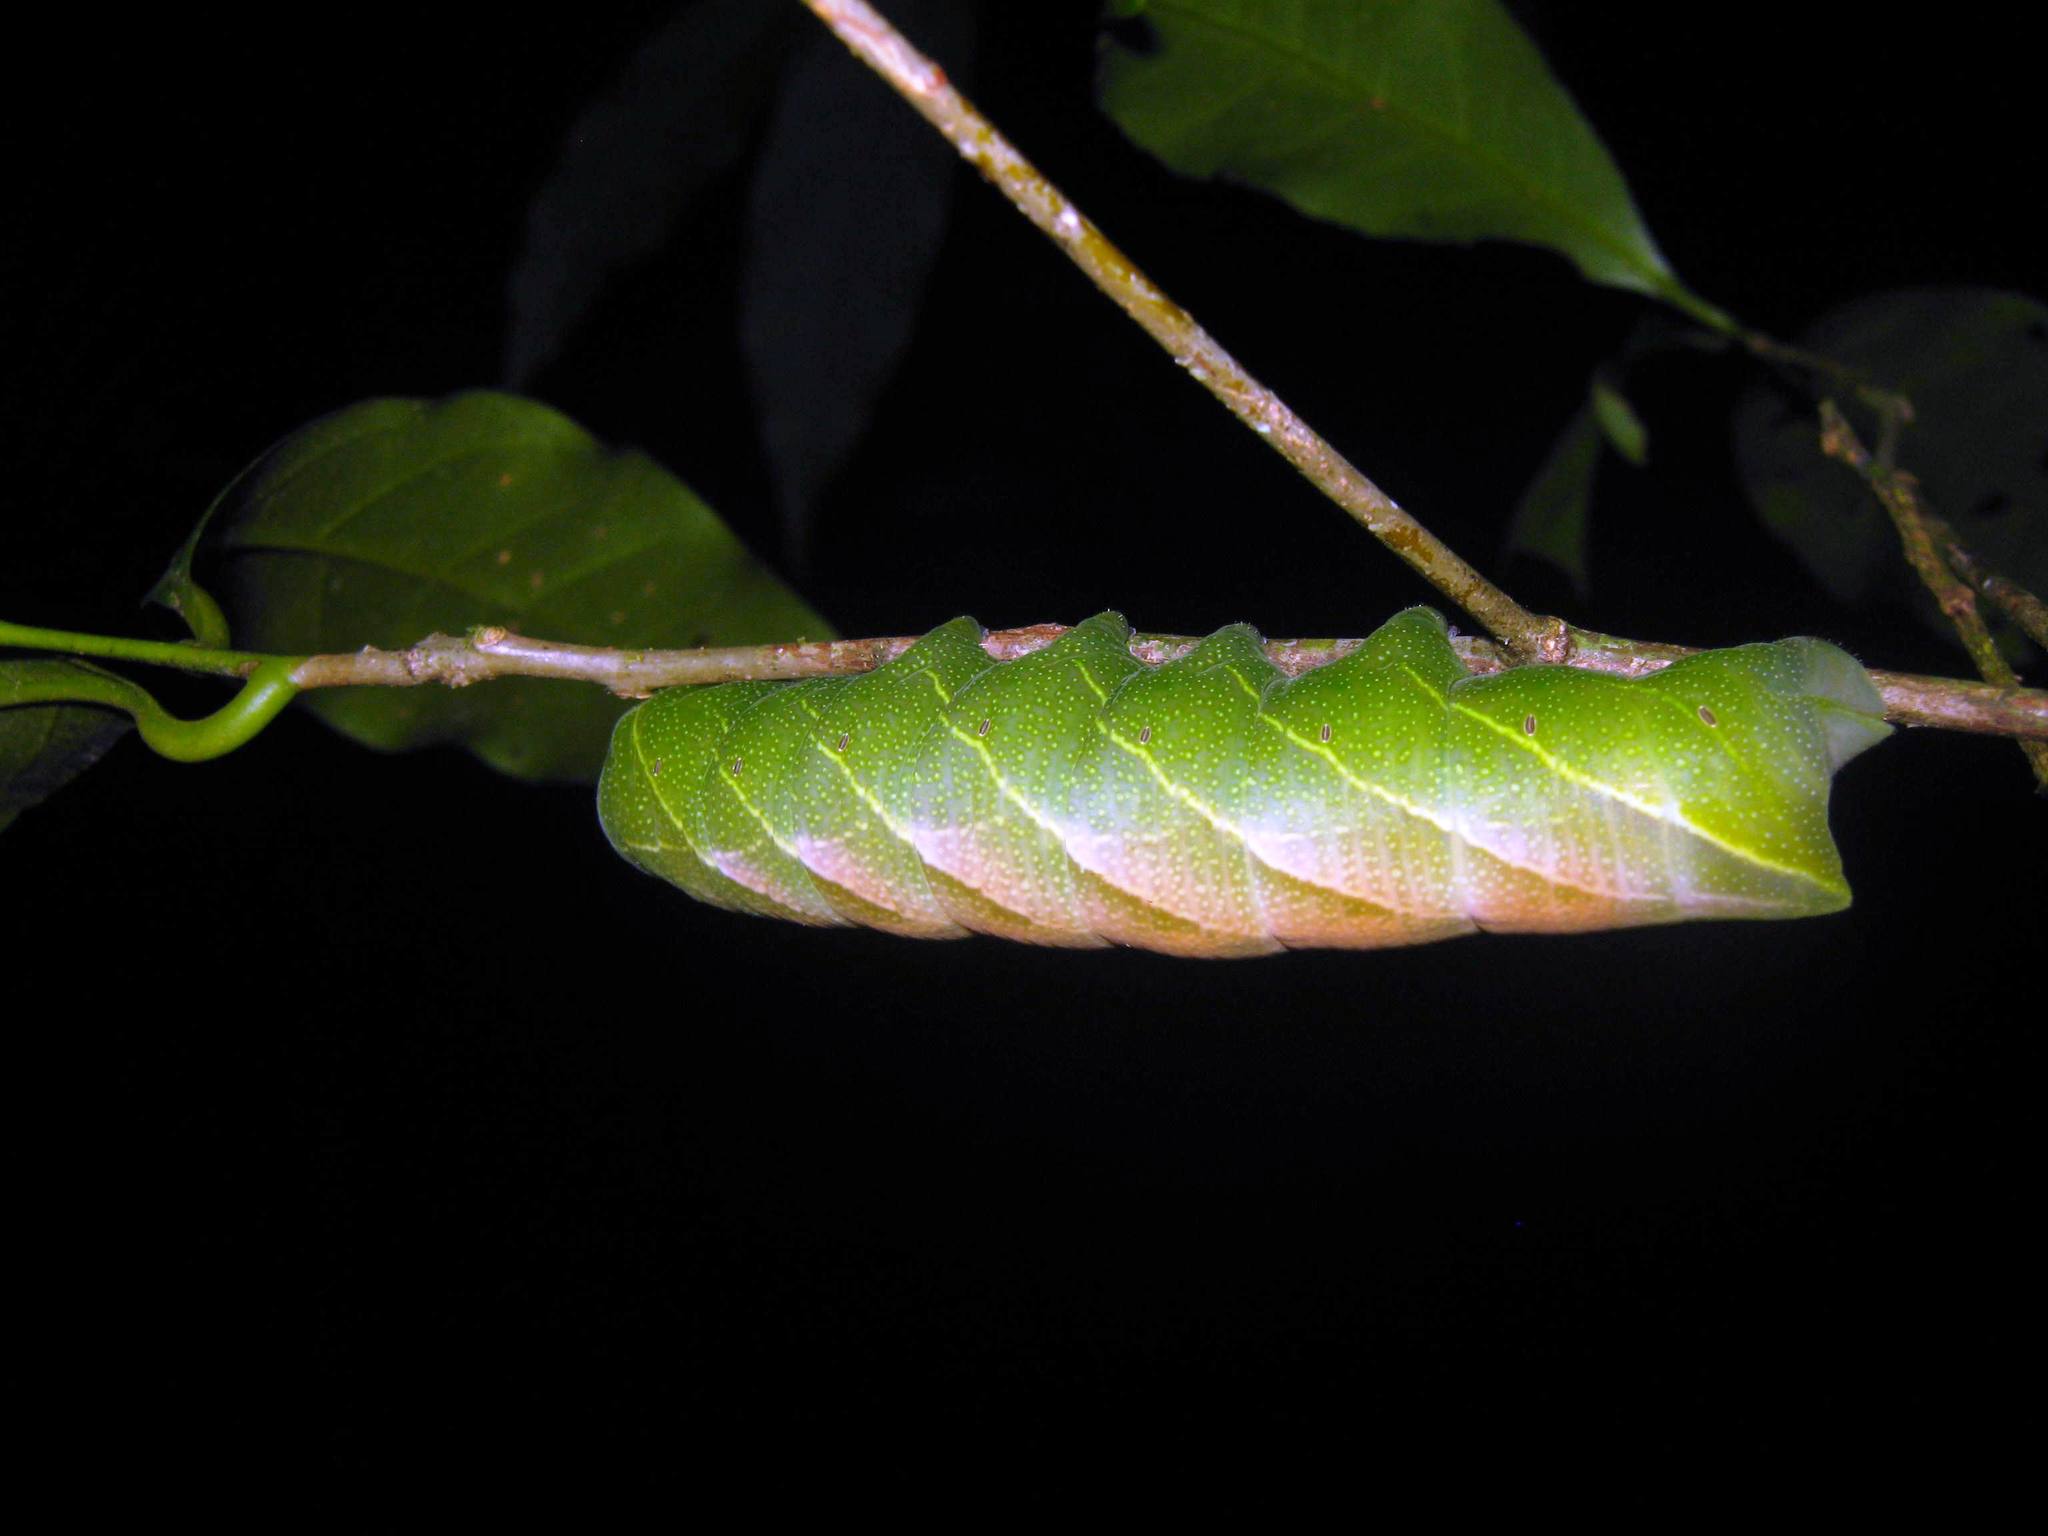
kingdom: Animalia
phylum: Arthropoda
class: Insecta
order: Lepidoptera
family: Sphingidae
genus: Pachylioides
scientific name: Pachylioides resumens
